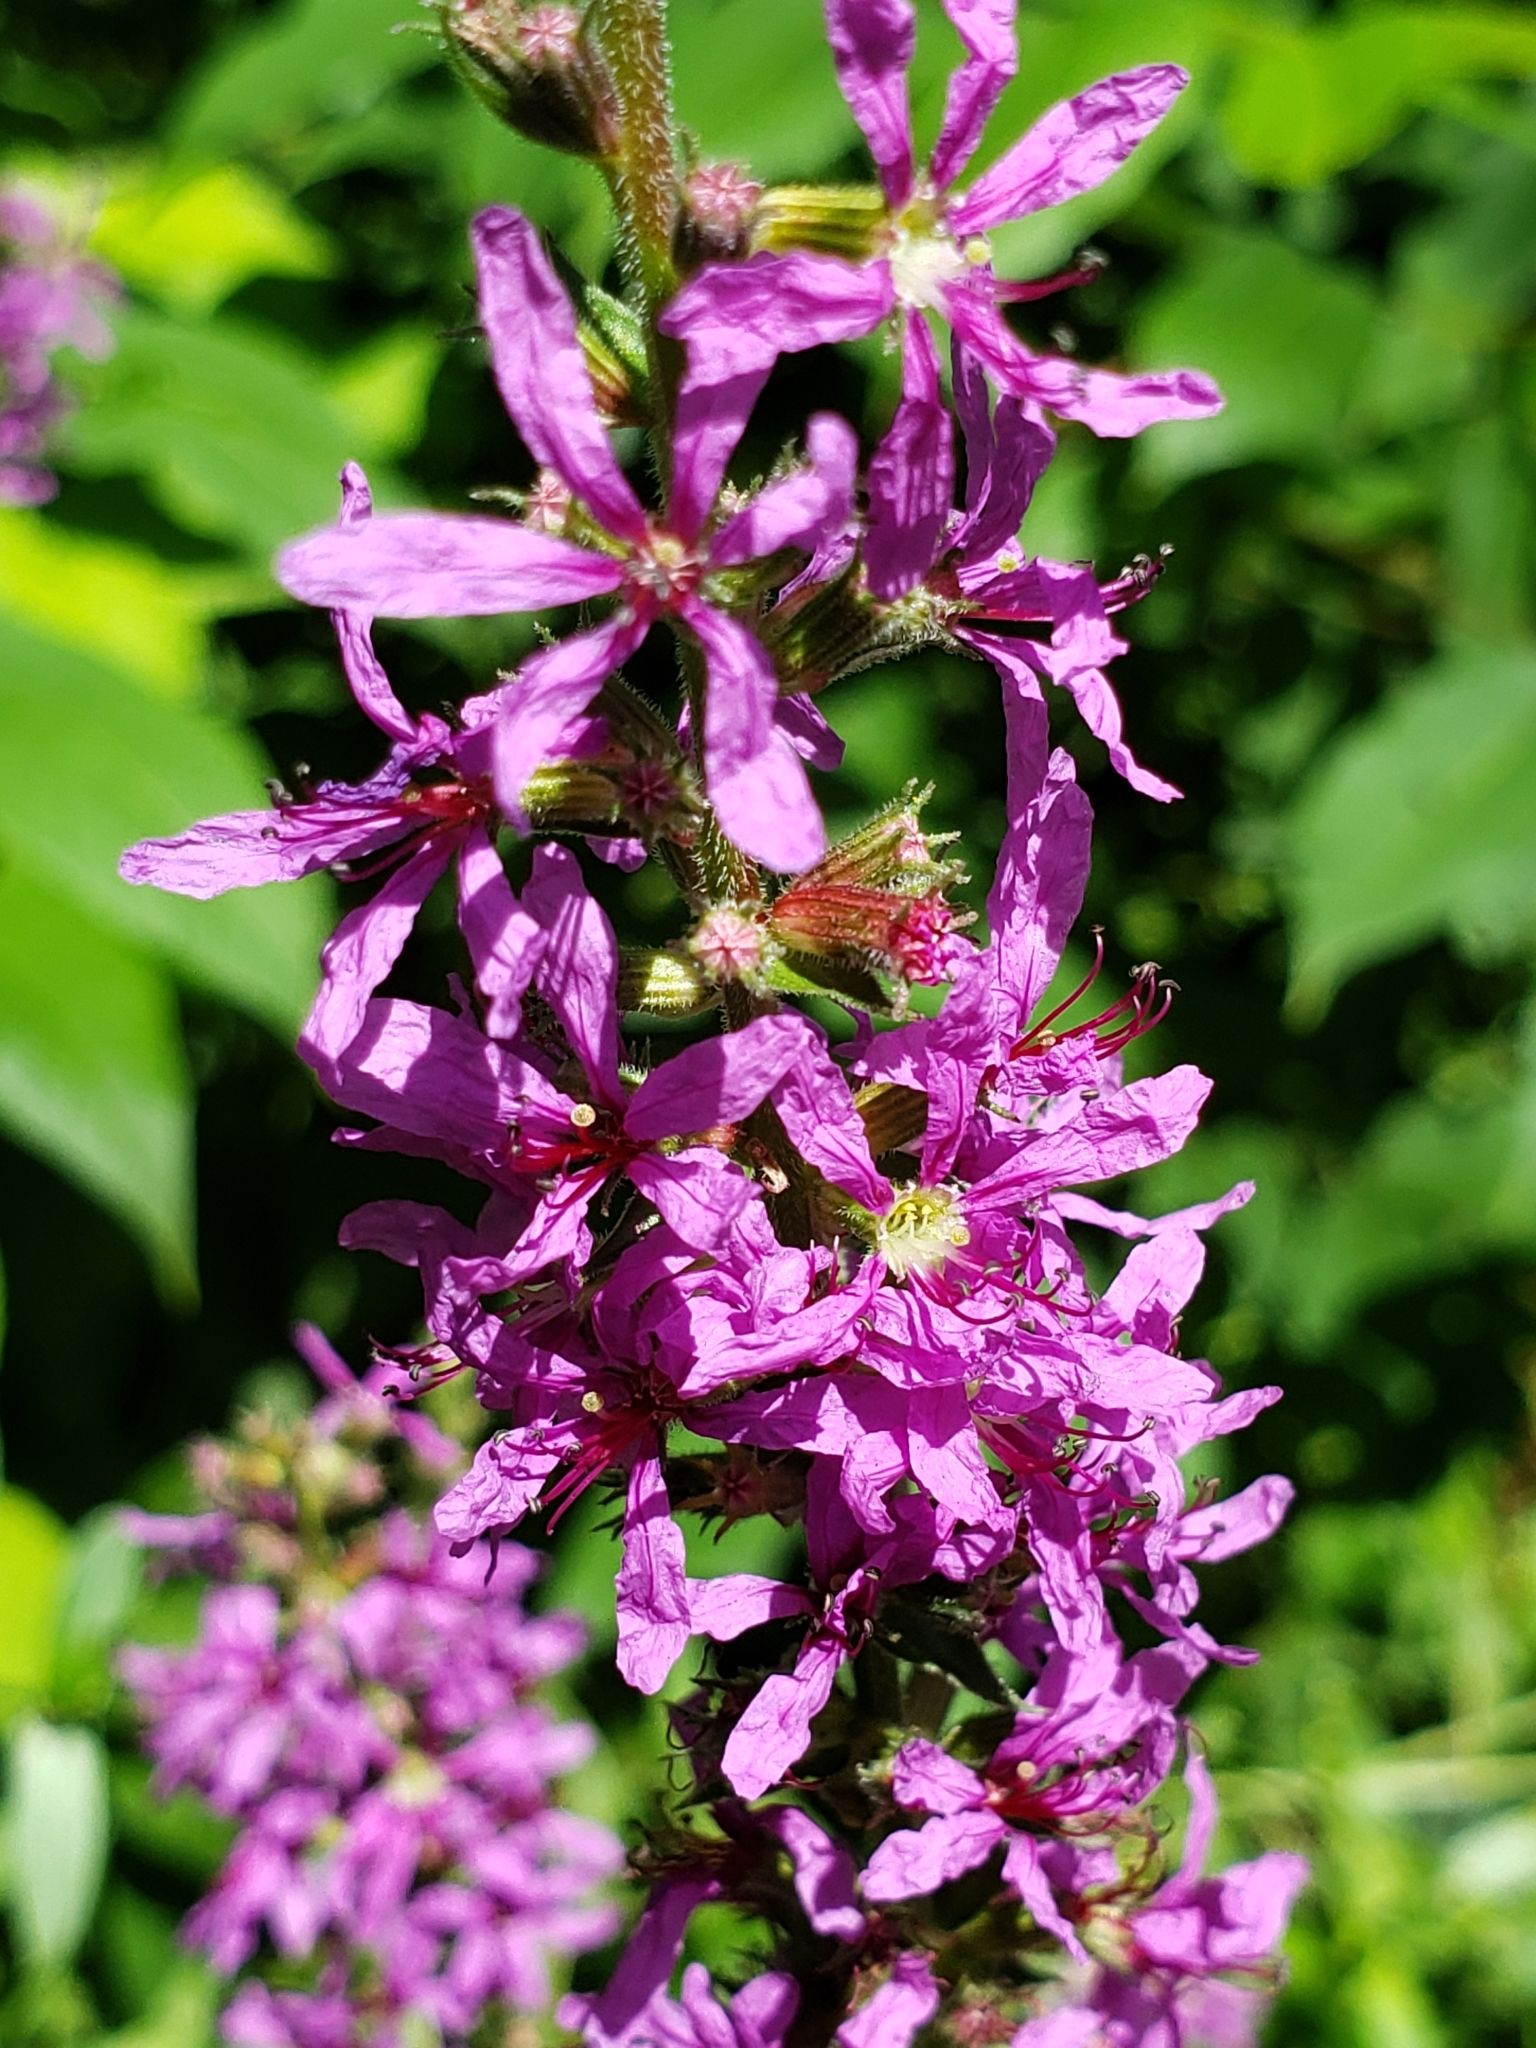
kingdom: Plantae
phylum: Tracheophyta
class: Magnoliopsida
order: Myrtales
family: Lythraceae
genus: Lythrum
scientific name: Lythrum salicaria
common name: Purple loosestrife
